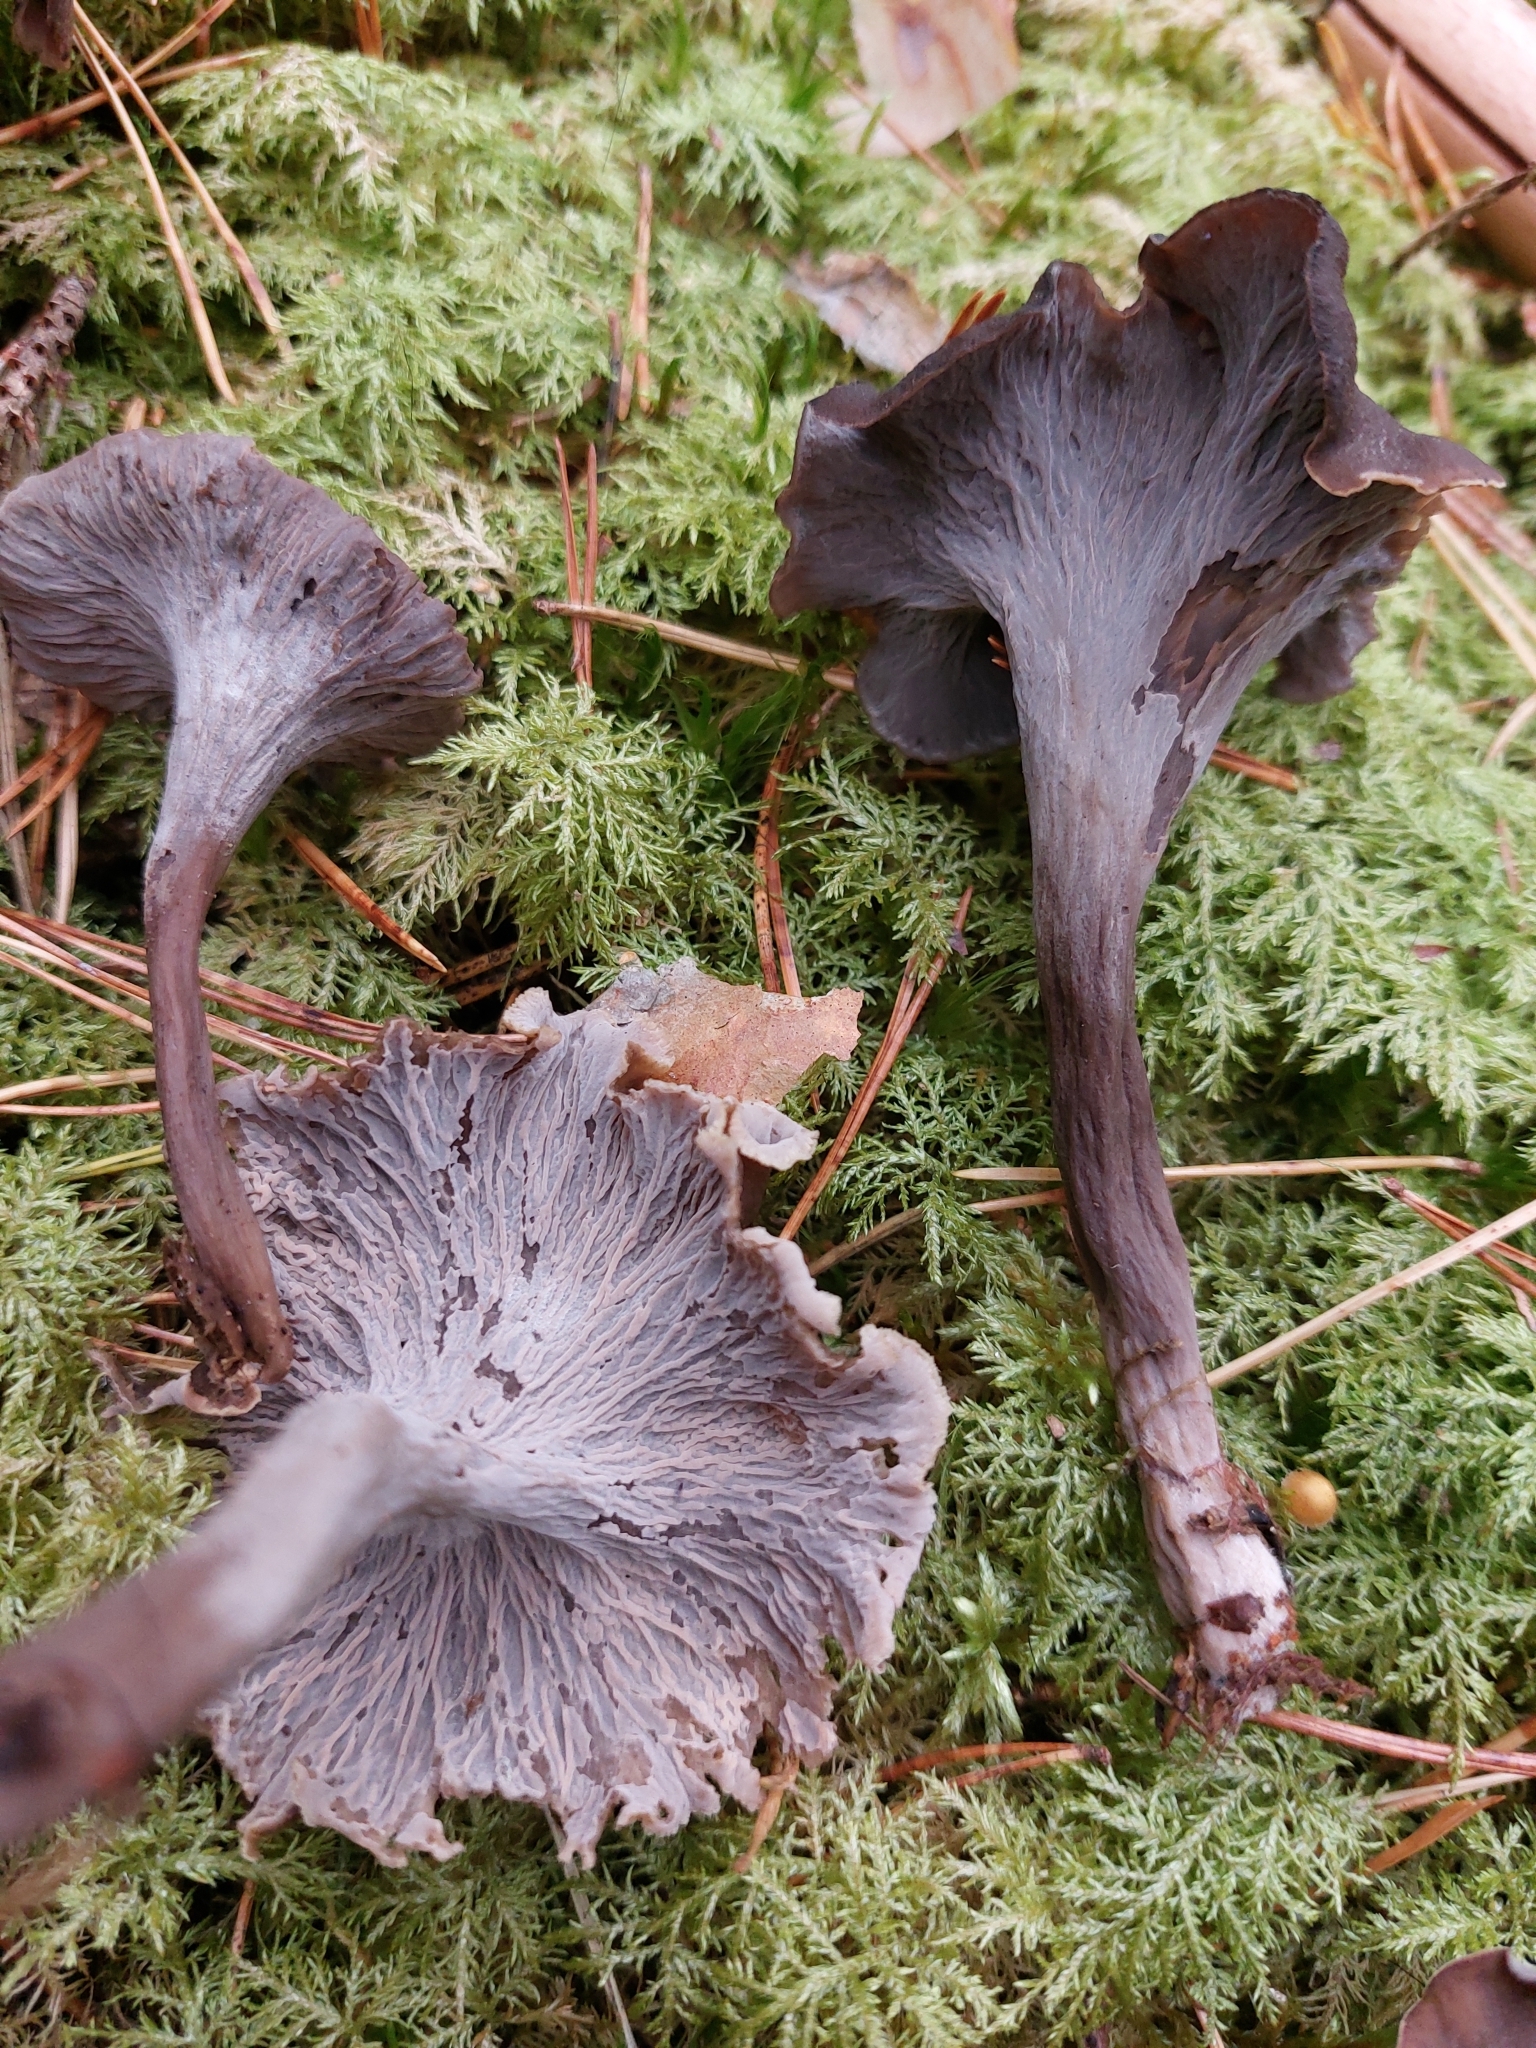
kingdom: Fungi
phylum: Basidiomycota
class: Agaricomycetes
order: Cantharellales
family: Hydnaceae
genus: Craterellus
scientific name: Craterellus caeruleofuscus
